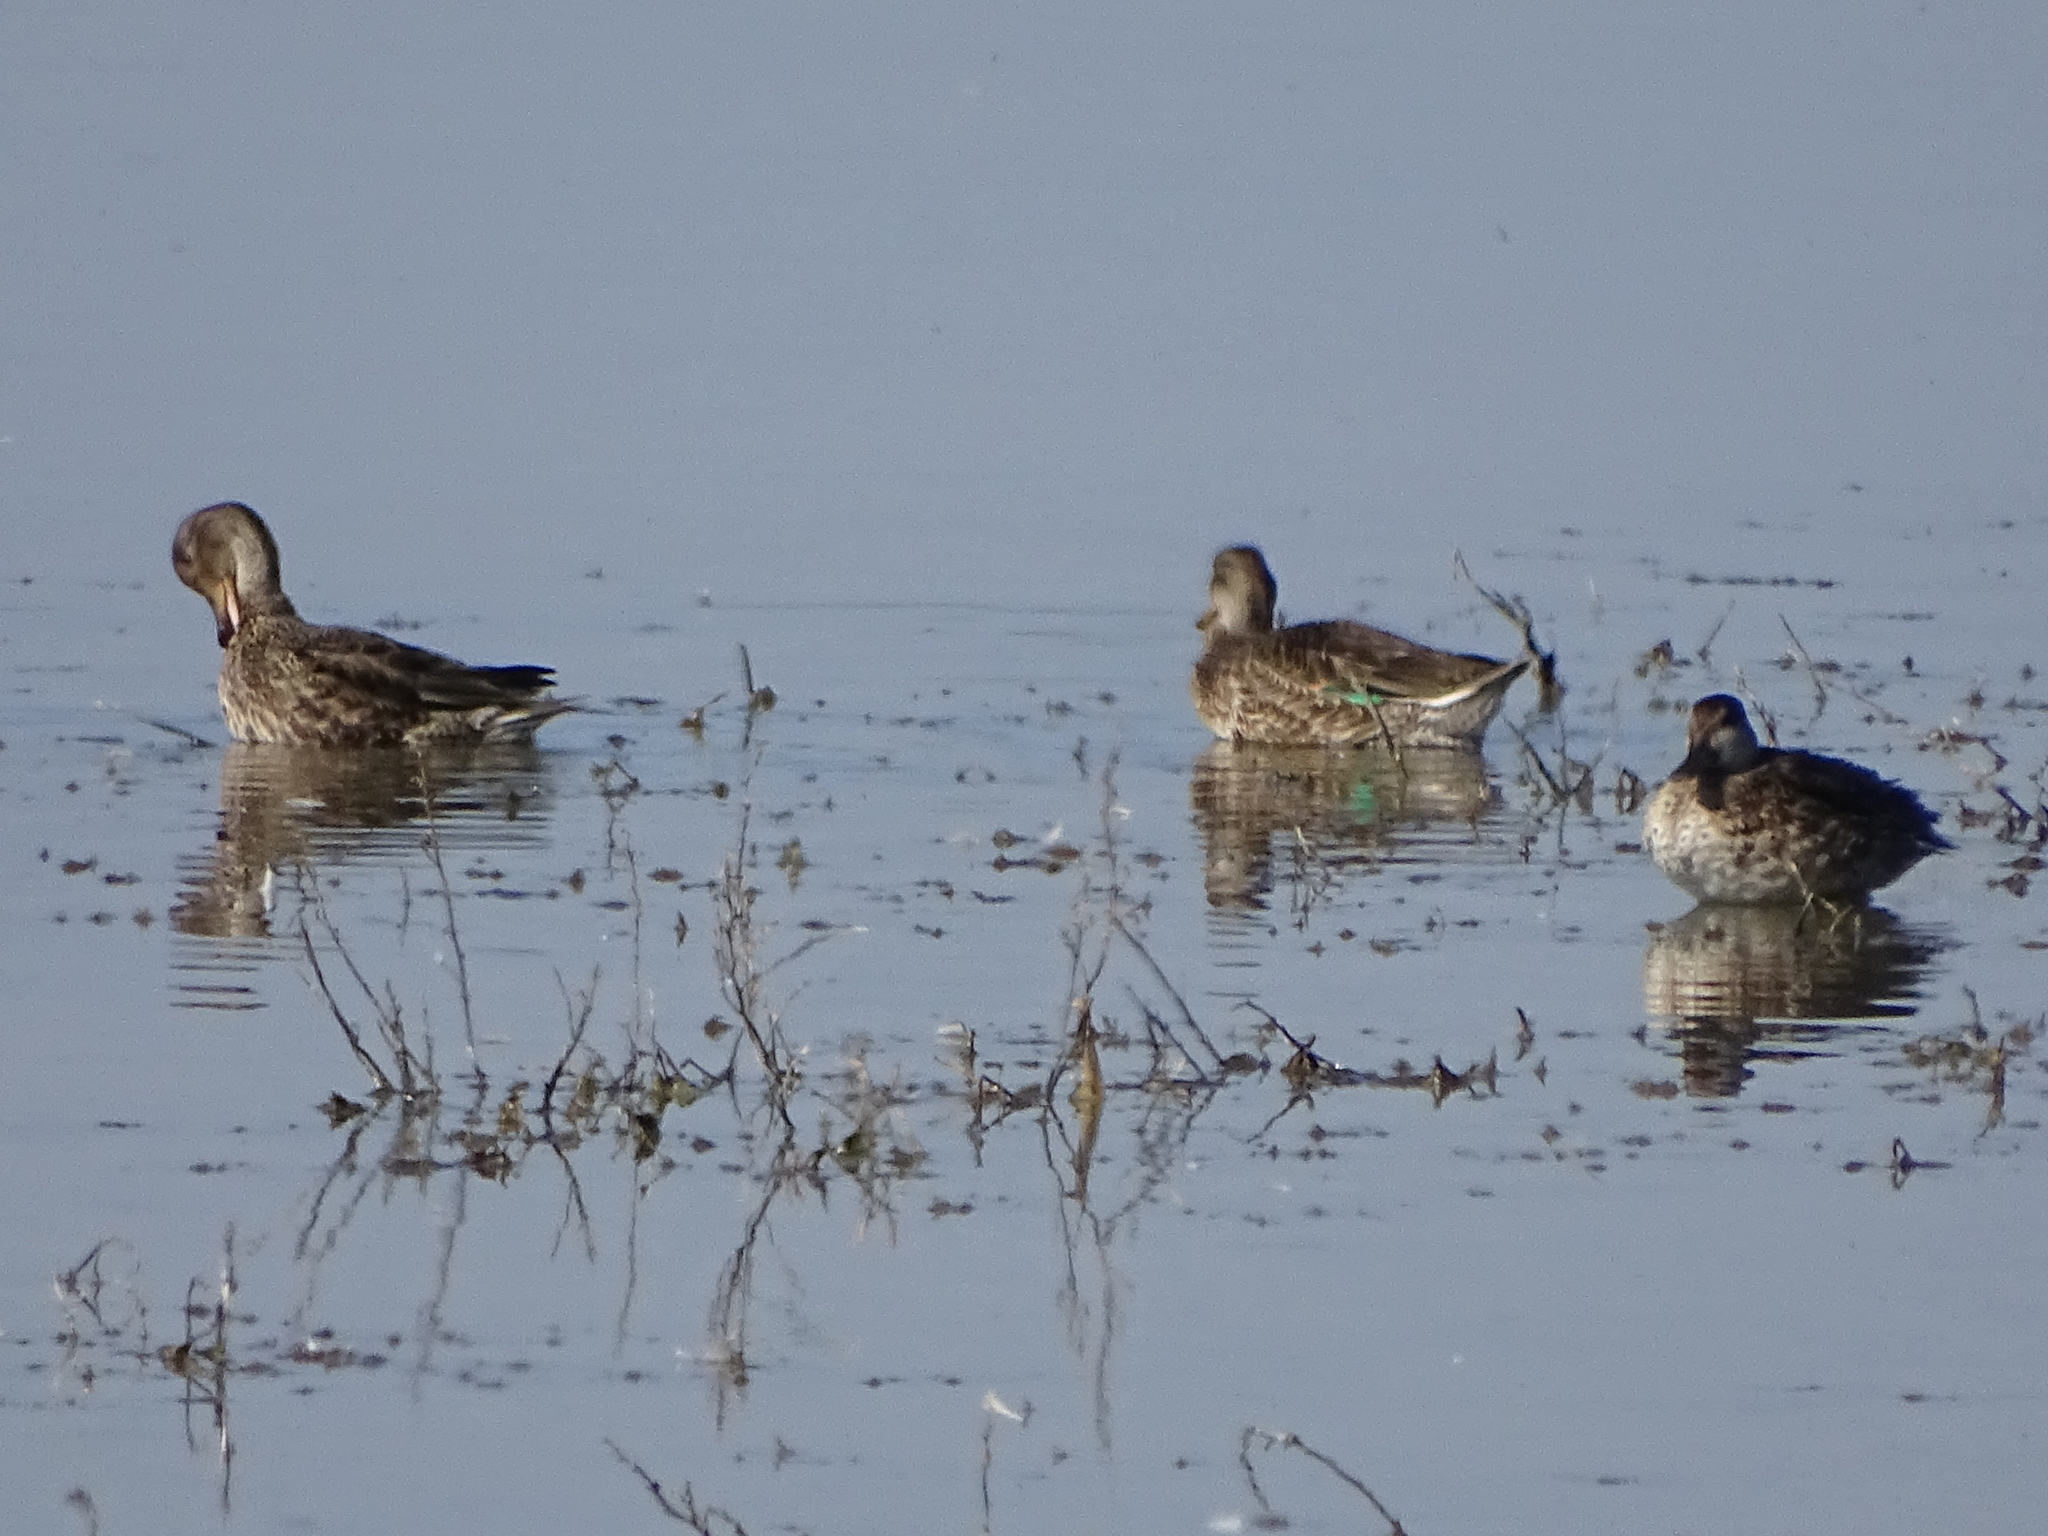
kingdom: Animalia
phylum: Chordata
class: Aves
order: Anseriformes
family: Anatidae
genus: Anas
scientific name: Anas crecca
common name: Eurasian teal
